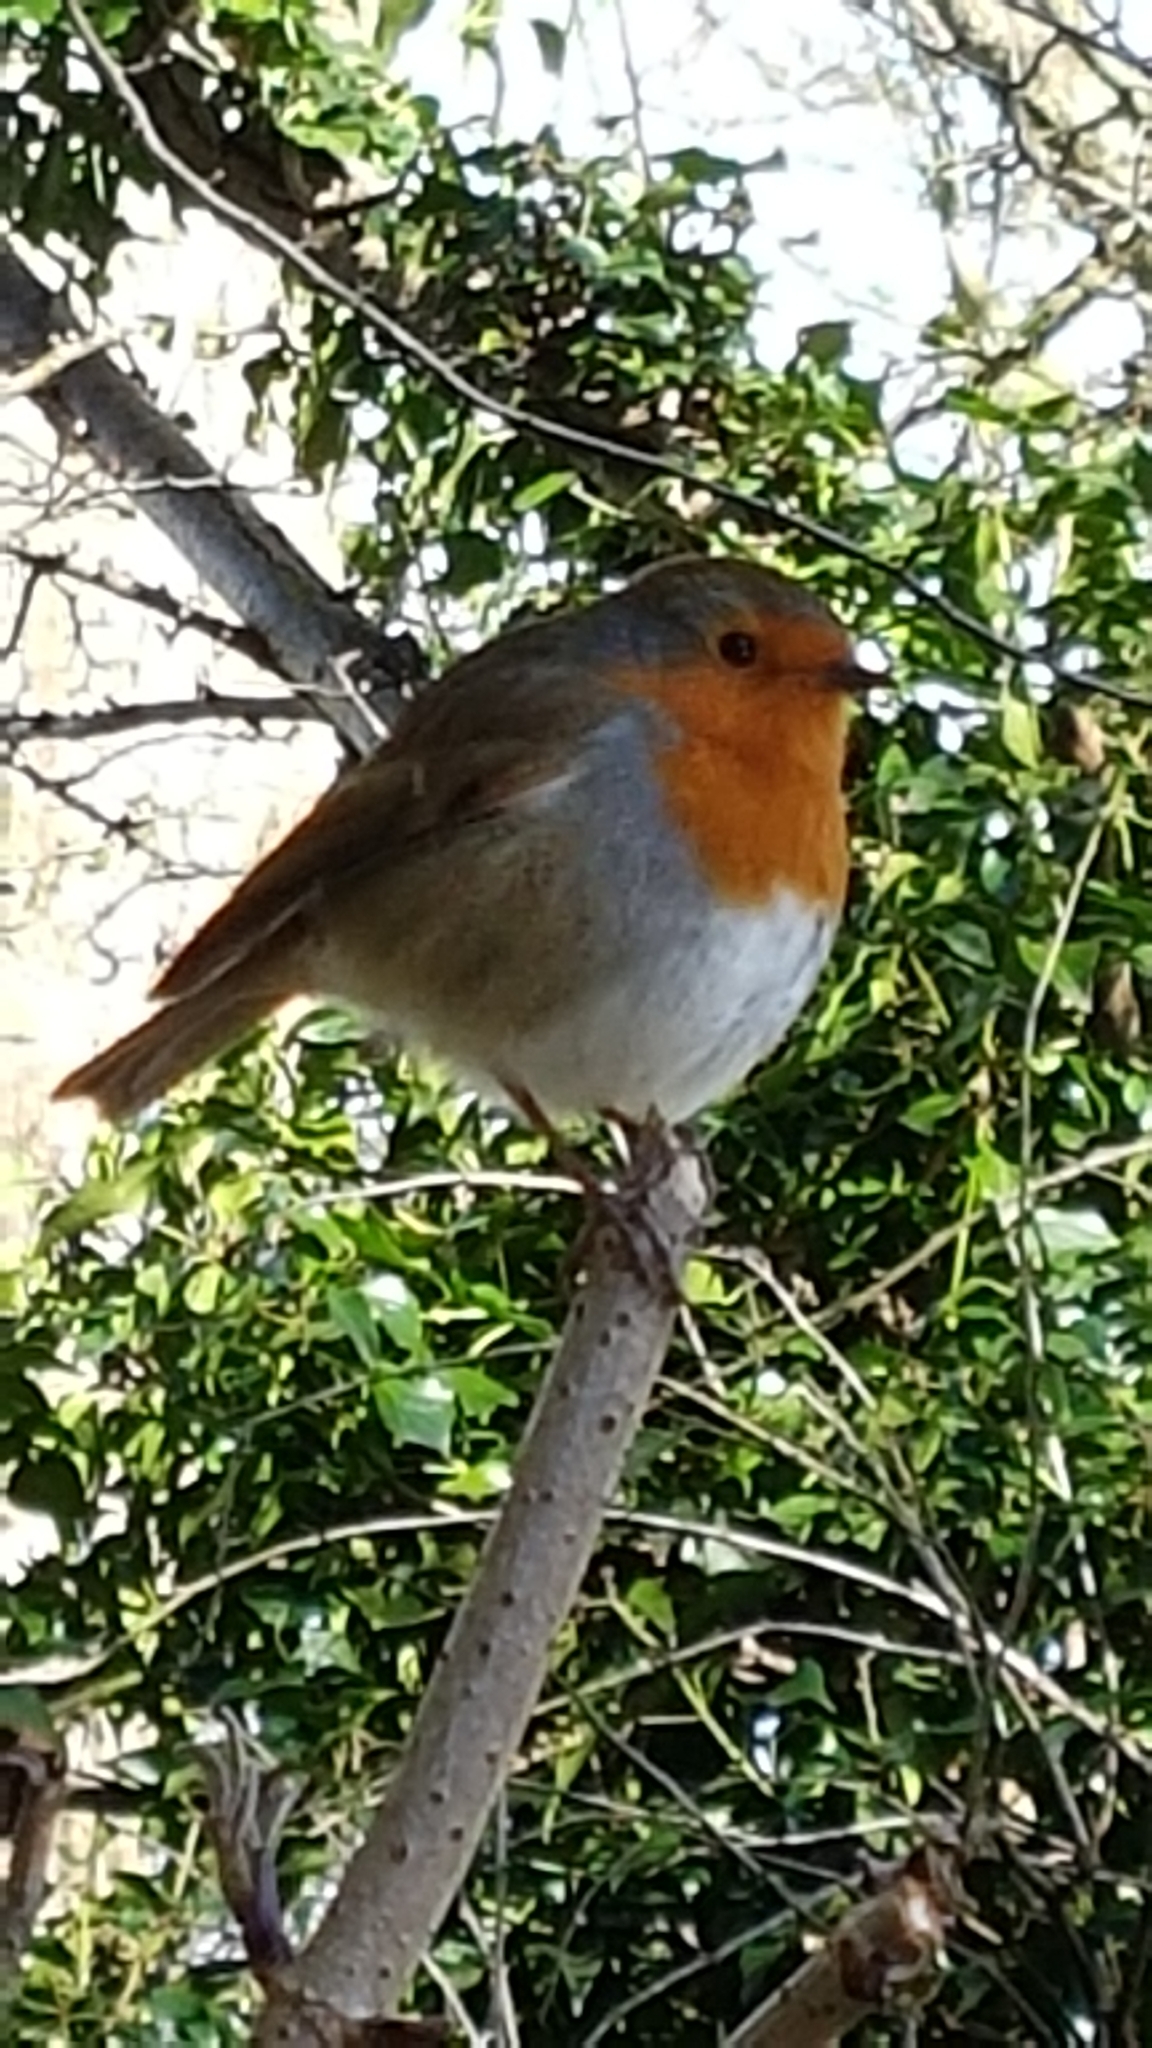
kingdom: Animalia
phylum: Chordata
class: Aves
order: Passeriformes
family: Muscicapidae
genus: Erithacus
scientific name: Erithacus rubecula
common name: European robin
